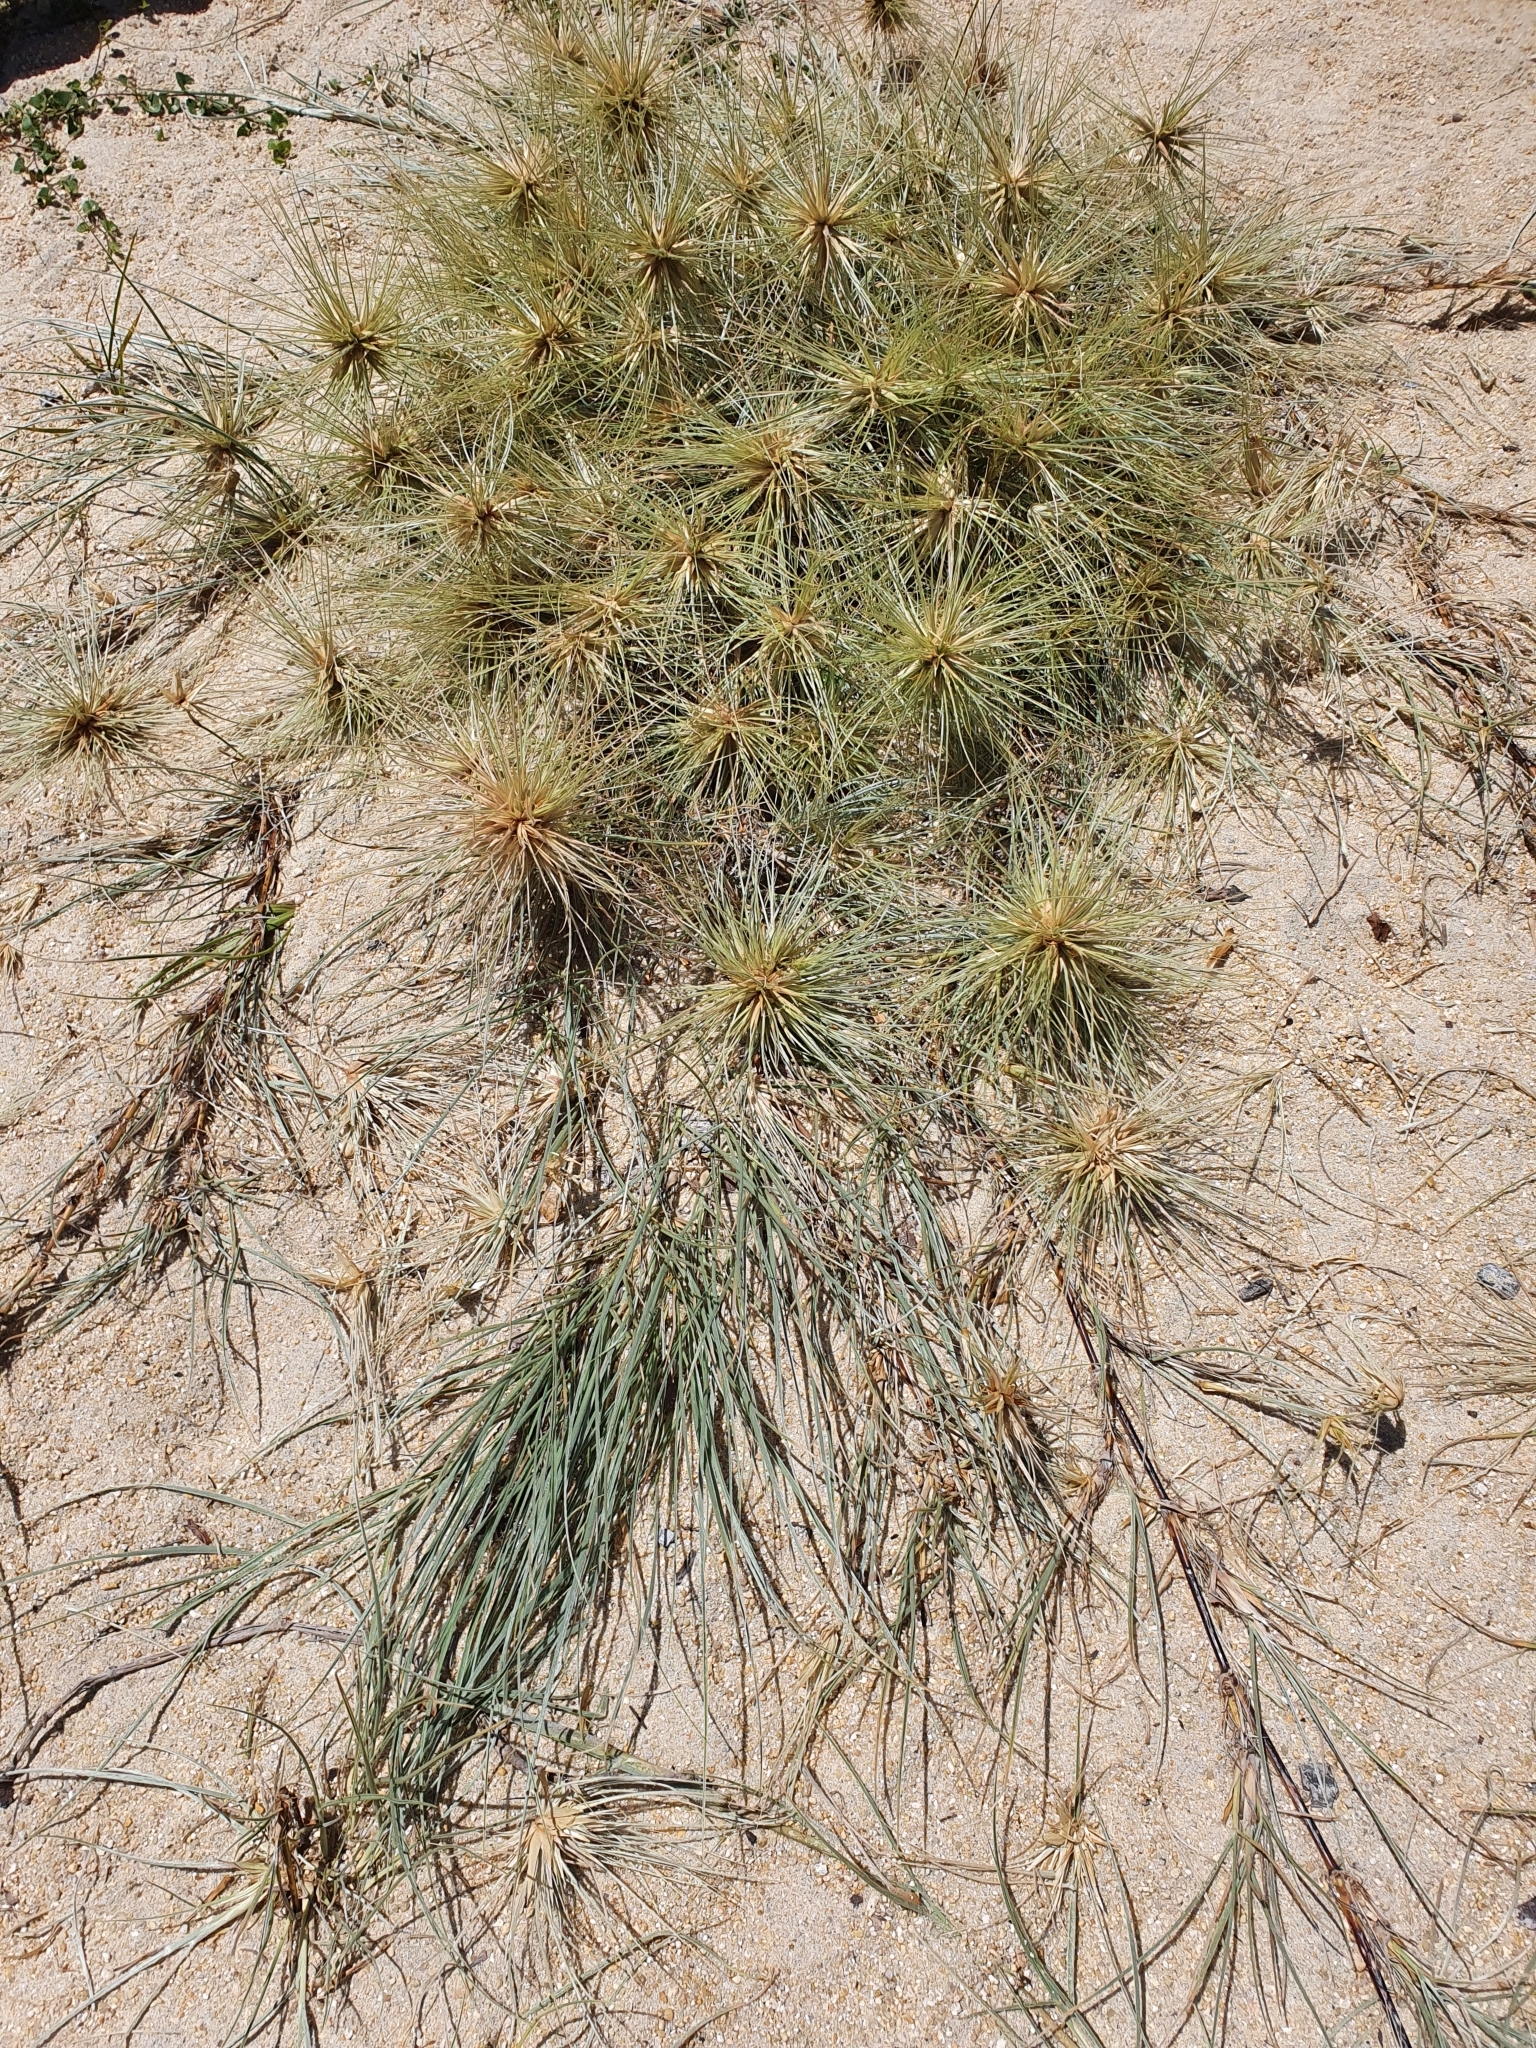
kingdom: Plantae
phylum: Tracheophyta
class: Liliopsida
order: Poales
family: Poaceae
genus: Spinifex
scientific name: Spinifex sericeus
